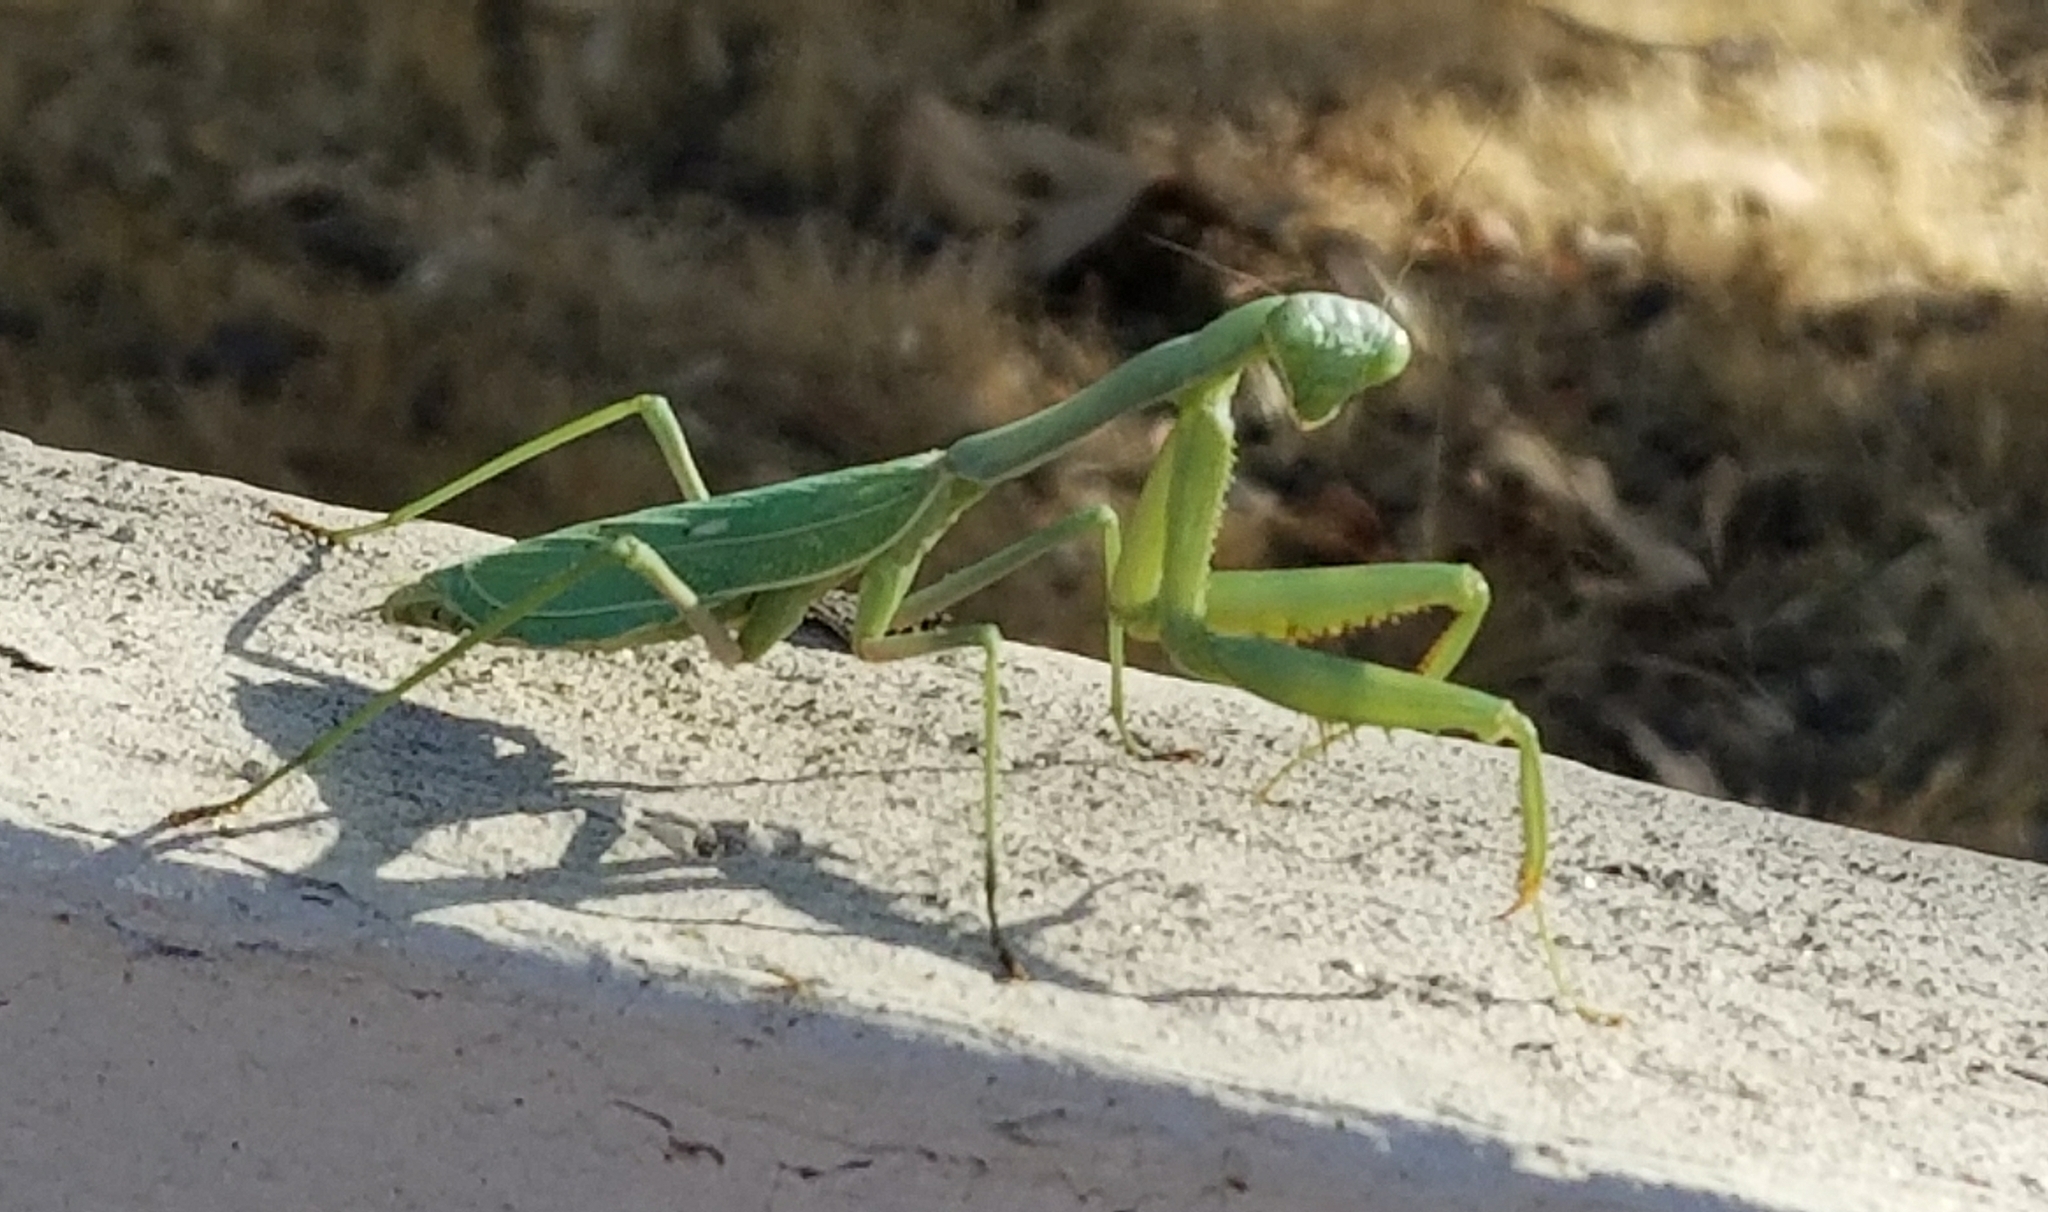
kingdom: Animalia
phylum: Arthropoda
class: Insecta
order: Mantodea
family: Mantidae
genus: Stagmomantis
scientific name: Stagmomantis limbata
